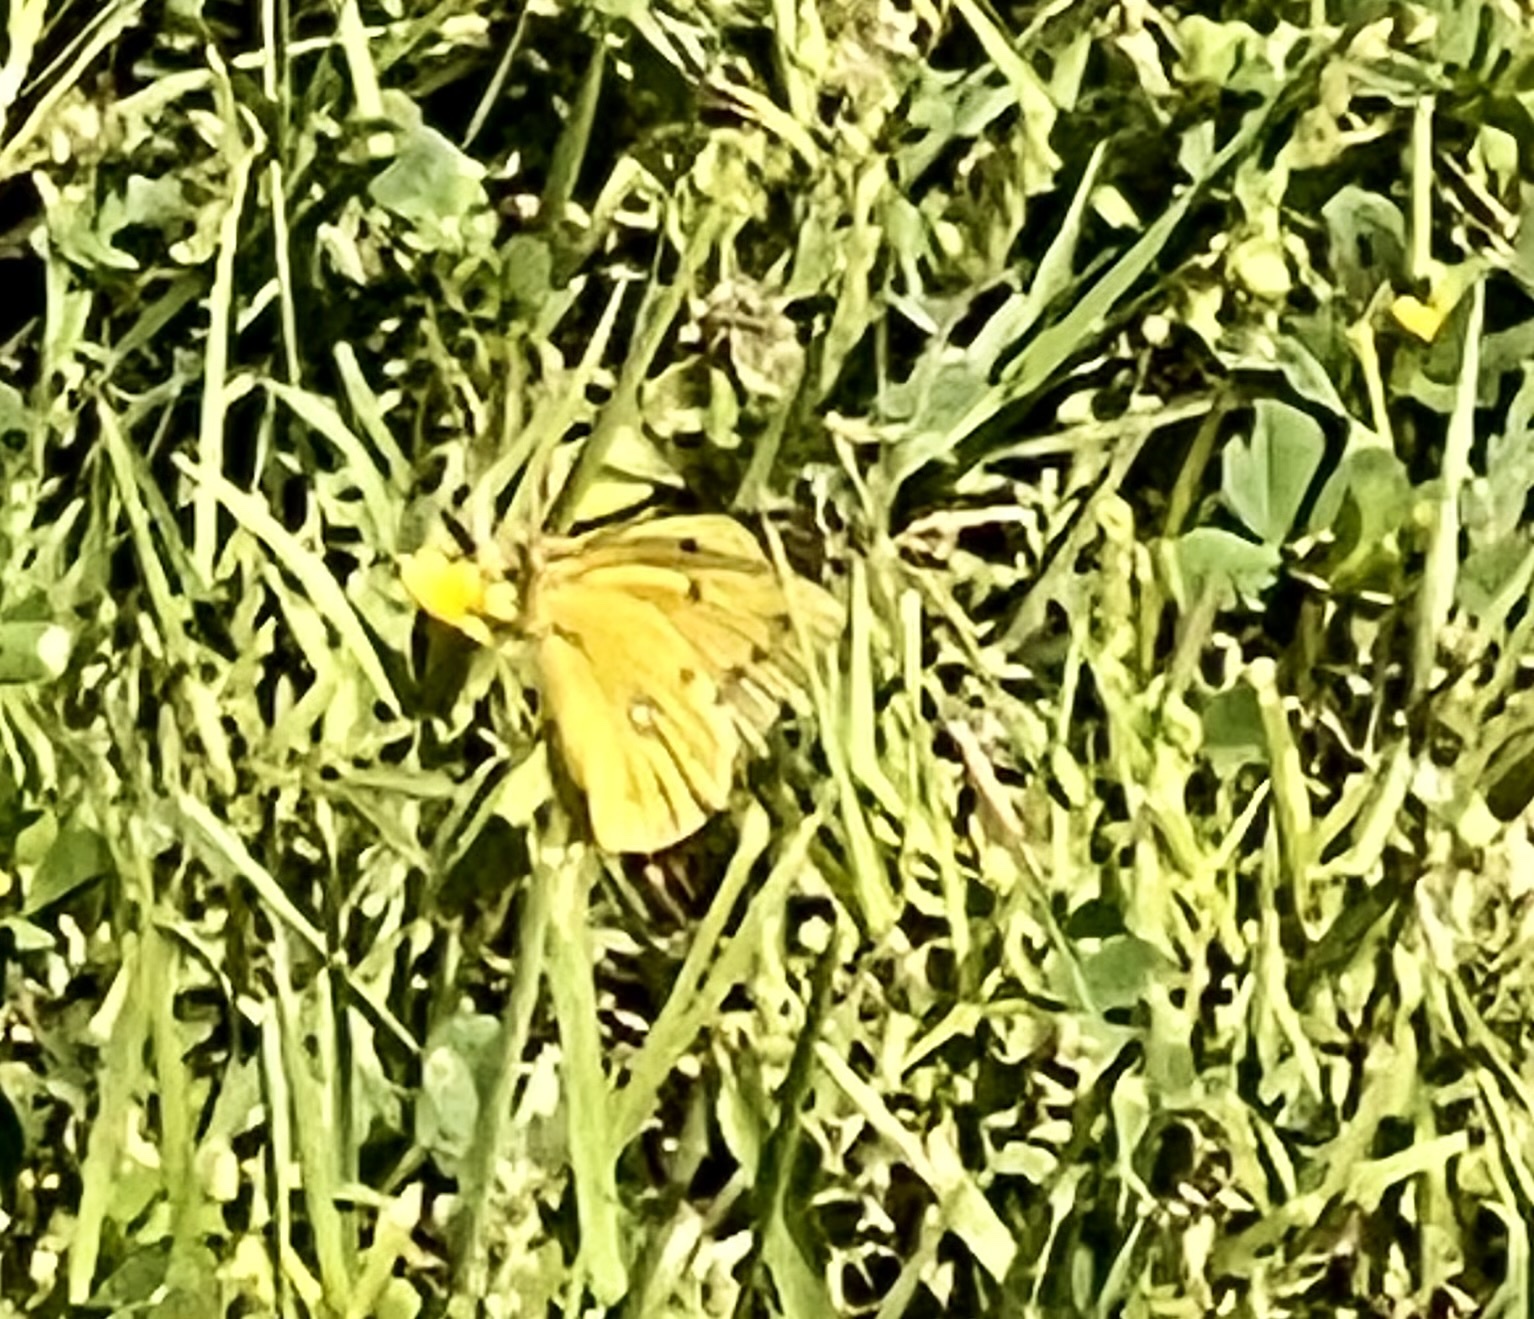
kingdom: Animalia
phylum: Arthropoda
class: Insecta
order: Lepidoptera
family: Pieridae
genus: Colias
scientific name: Colias eurytheme
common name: Alfalfa butterfly
